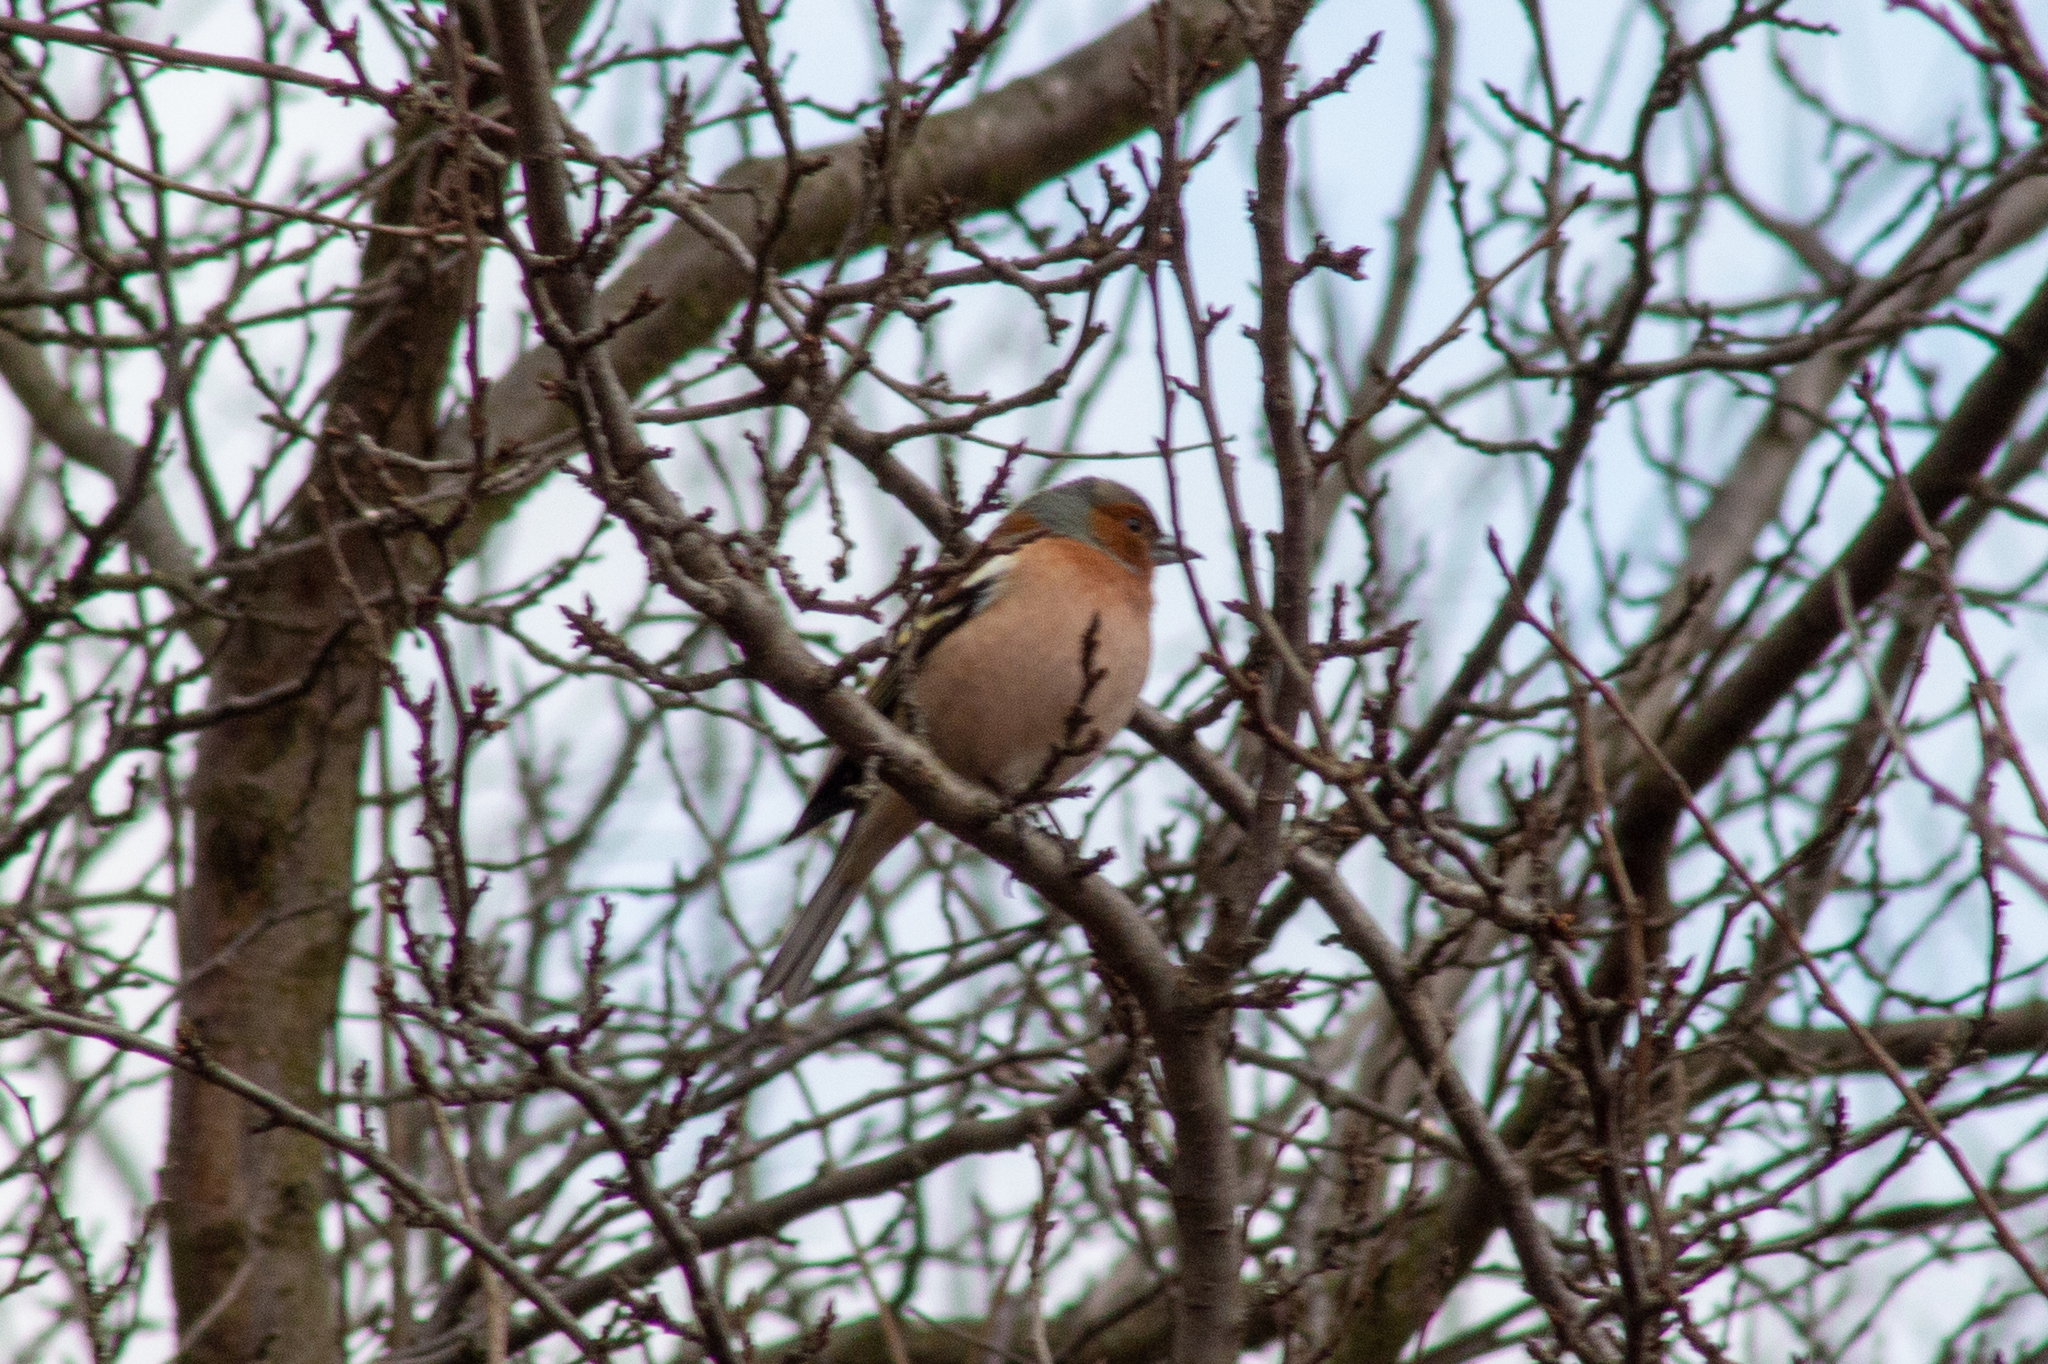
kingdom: Animalia
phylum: Chordata
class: Aves
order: Passeriformes
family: Fringillidae
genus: Fringilla
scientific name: Fringilla coelebs
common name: Common chaffinch
